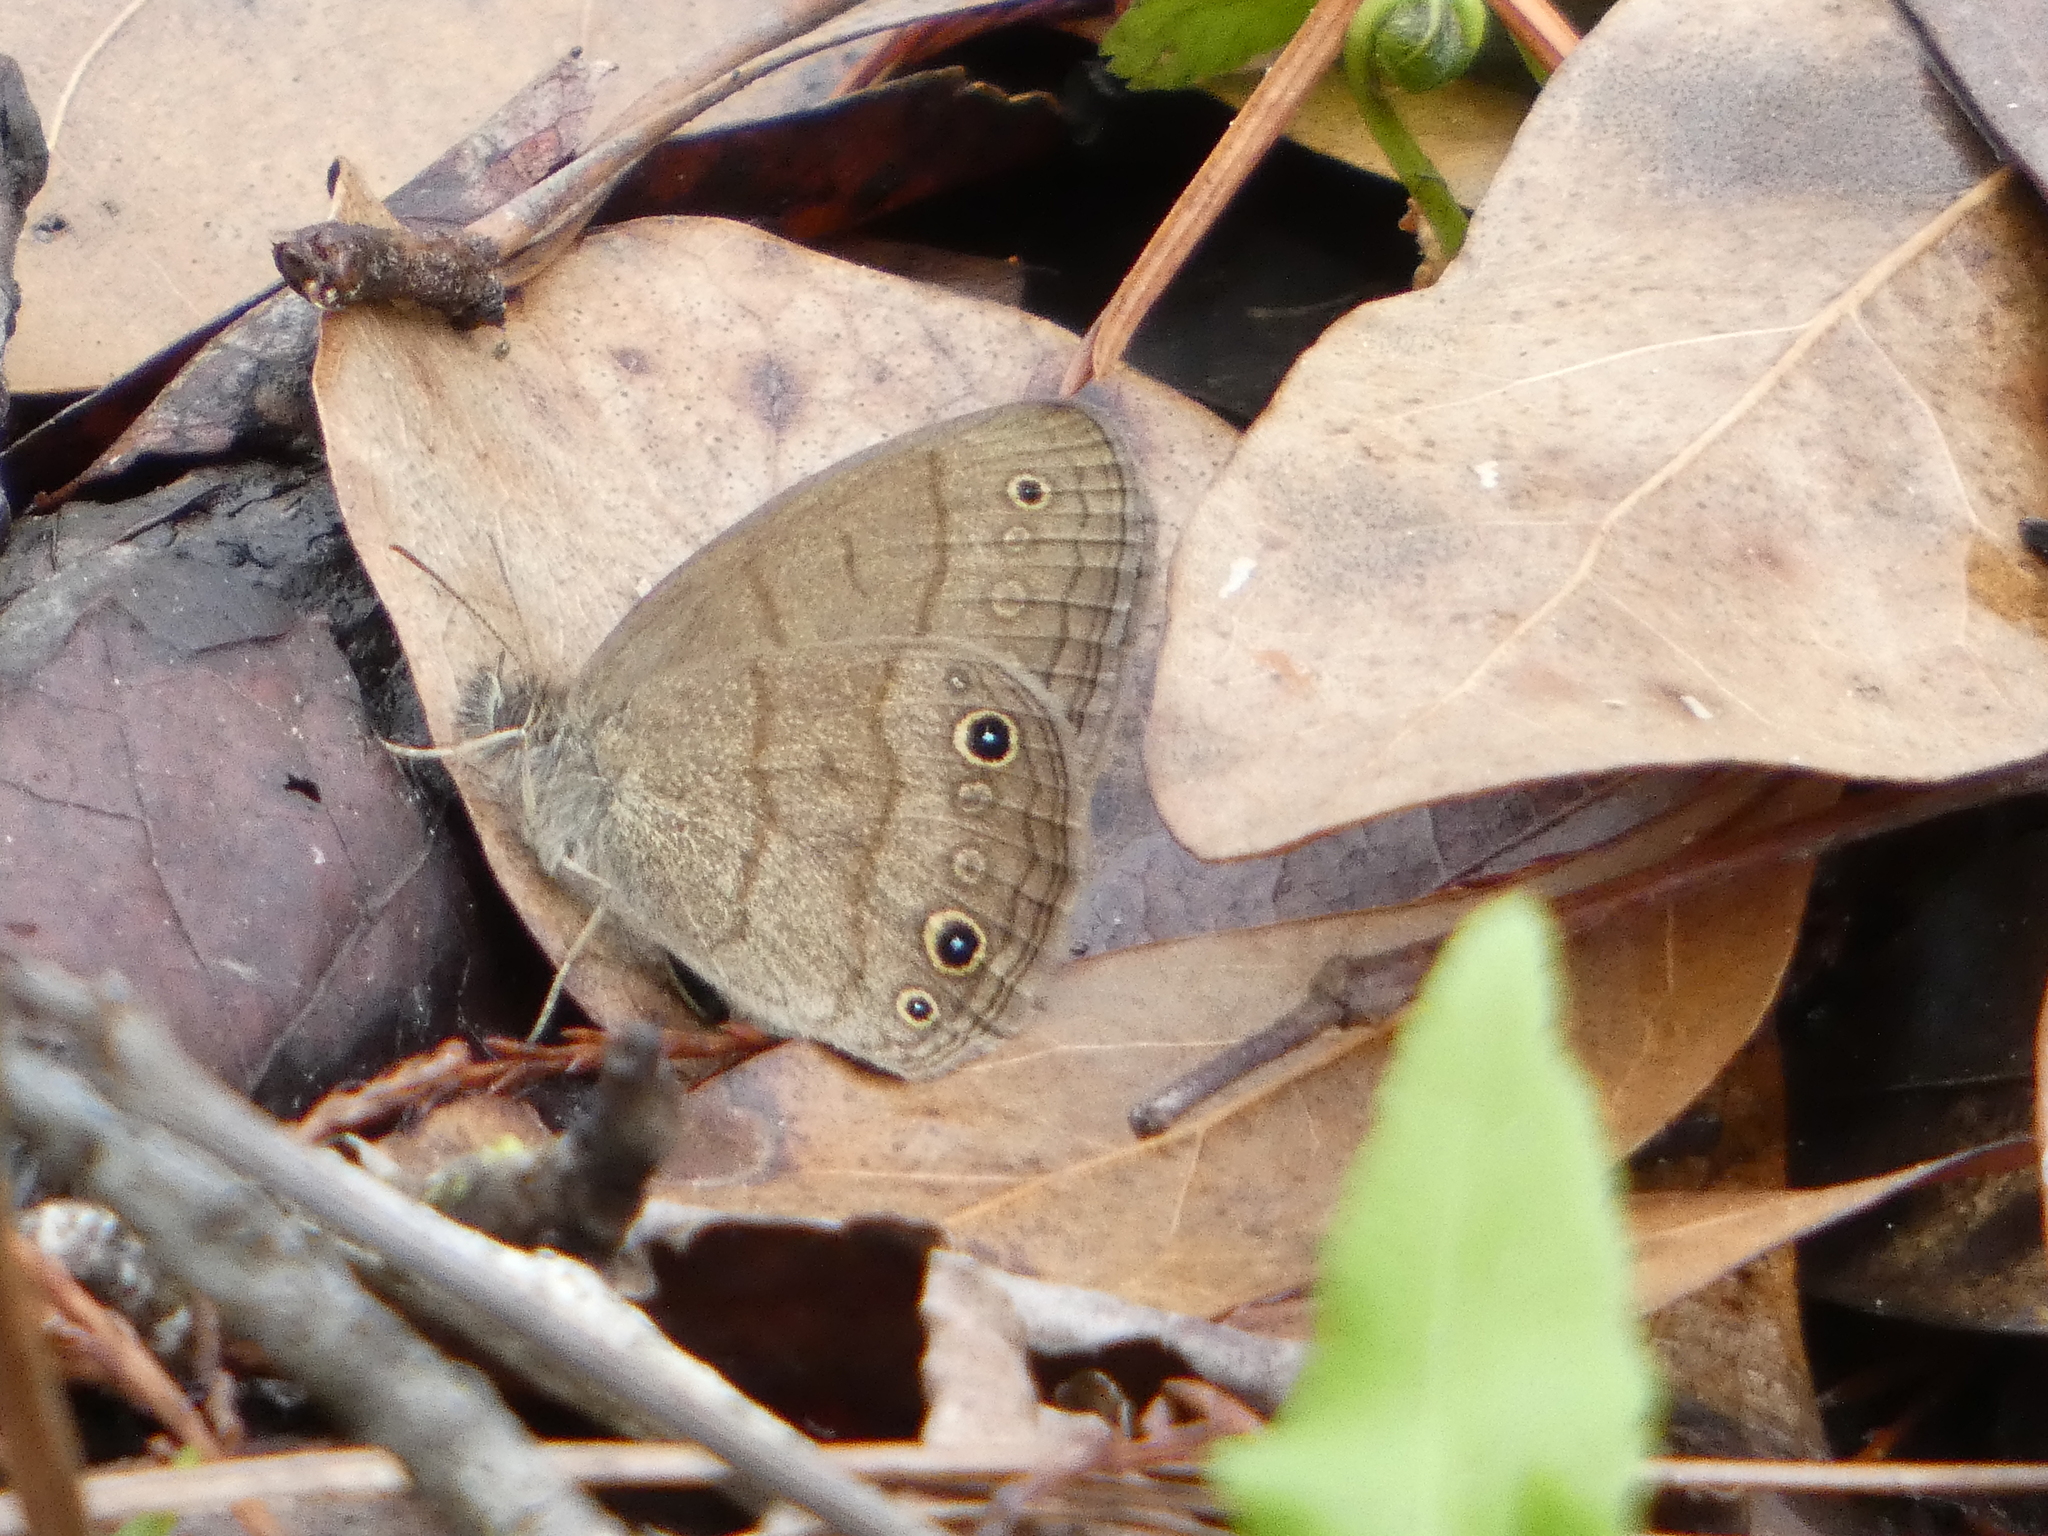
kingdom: Animalia
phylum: Arthropoda
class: Insecta
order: Lepidoptera
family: Nymphalidae
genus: Hermeuptychia
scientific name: Hermeuptychia hermes
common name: Hermes satyr
